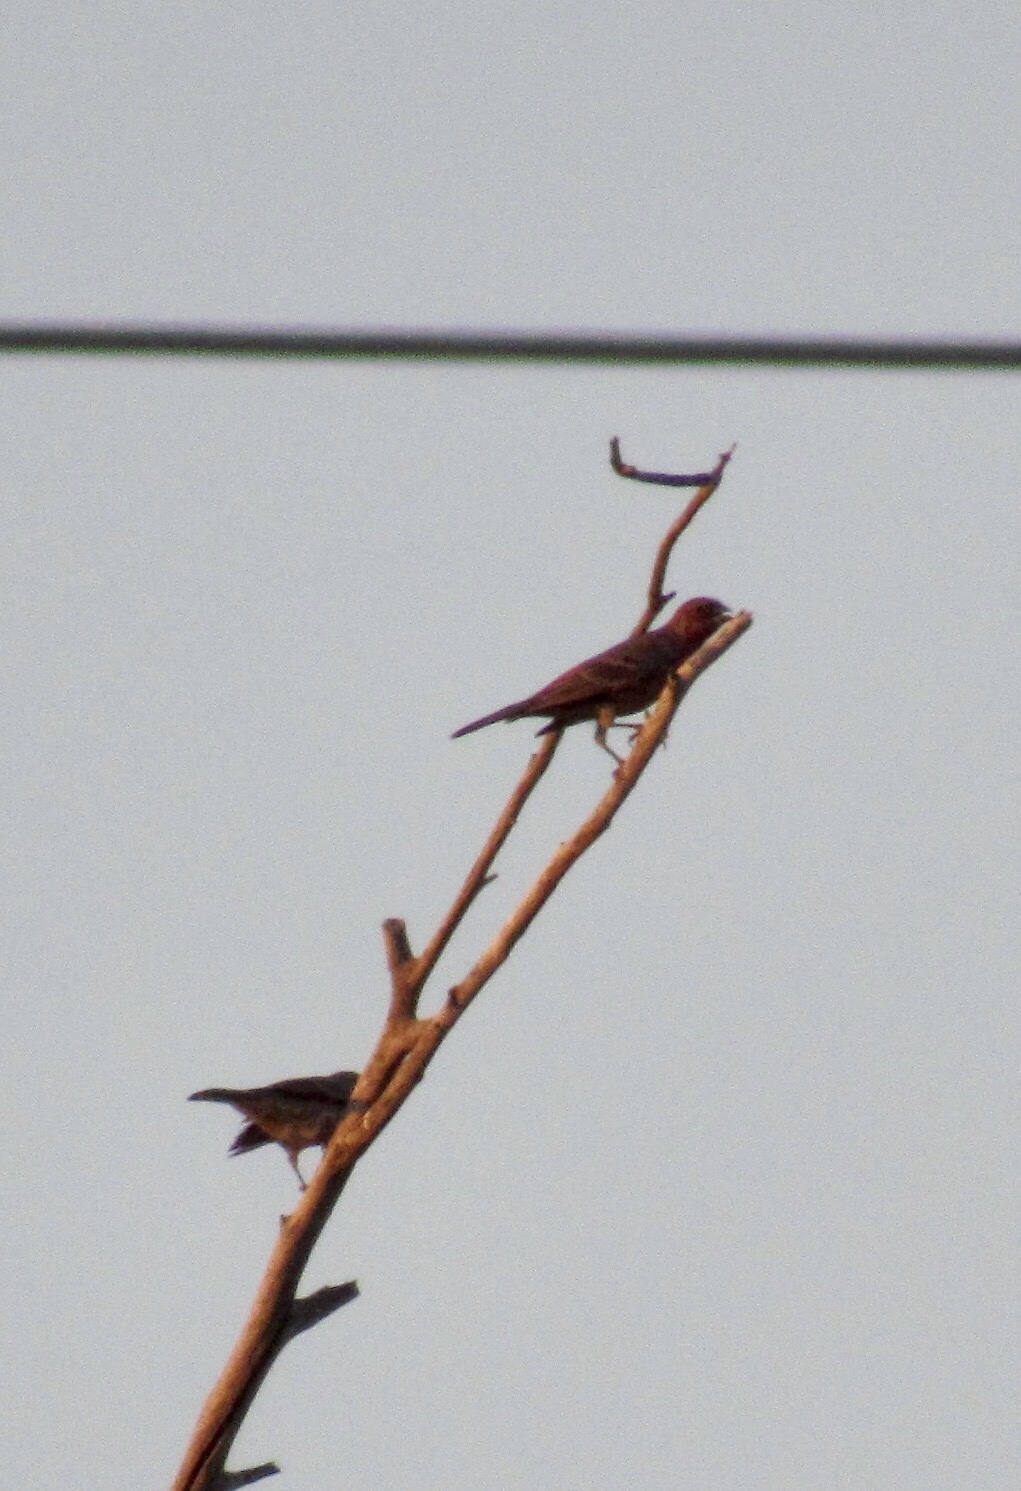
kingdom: Animalia
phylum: Chordata
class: Aves
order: Passeriformes
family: Fringillidae
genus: Haemorhous
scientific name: Haemorhous mexicanus
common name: House finch
